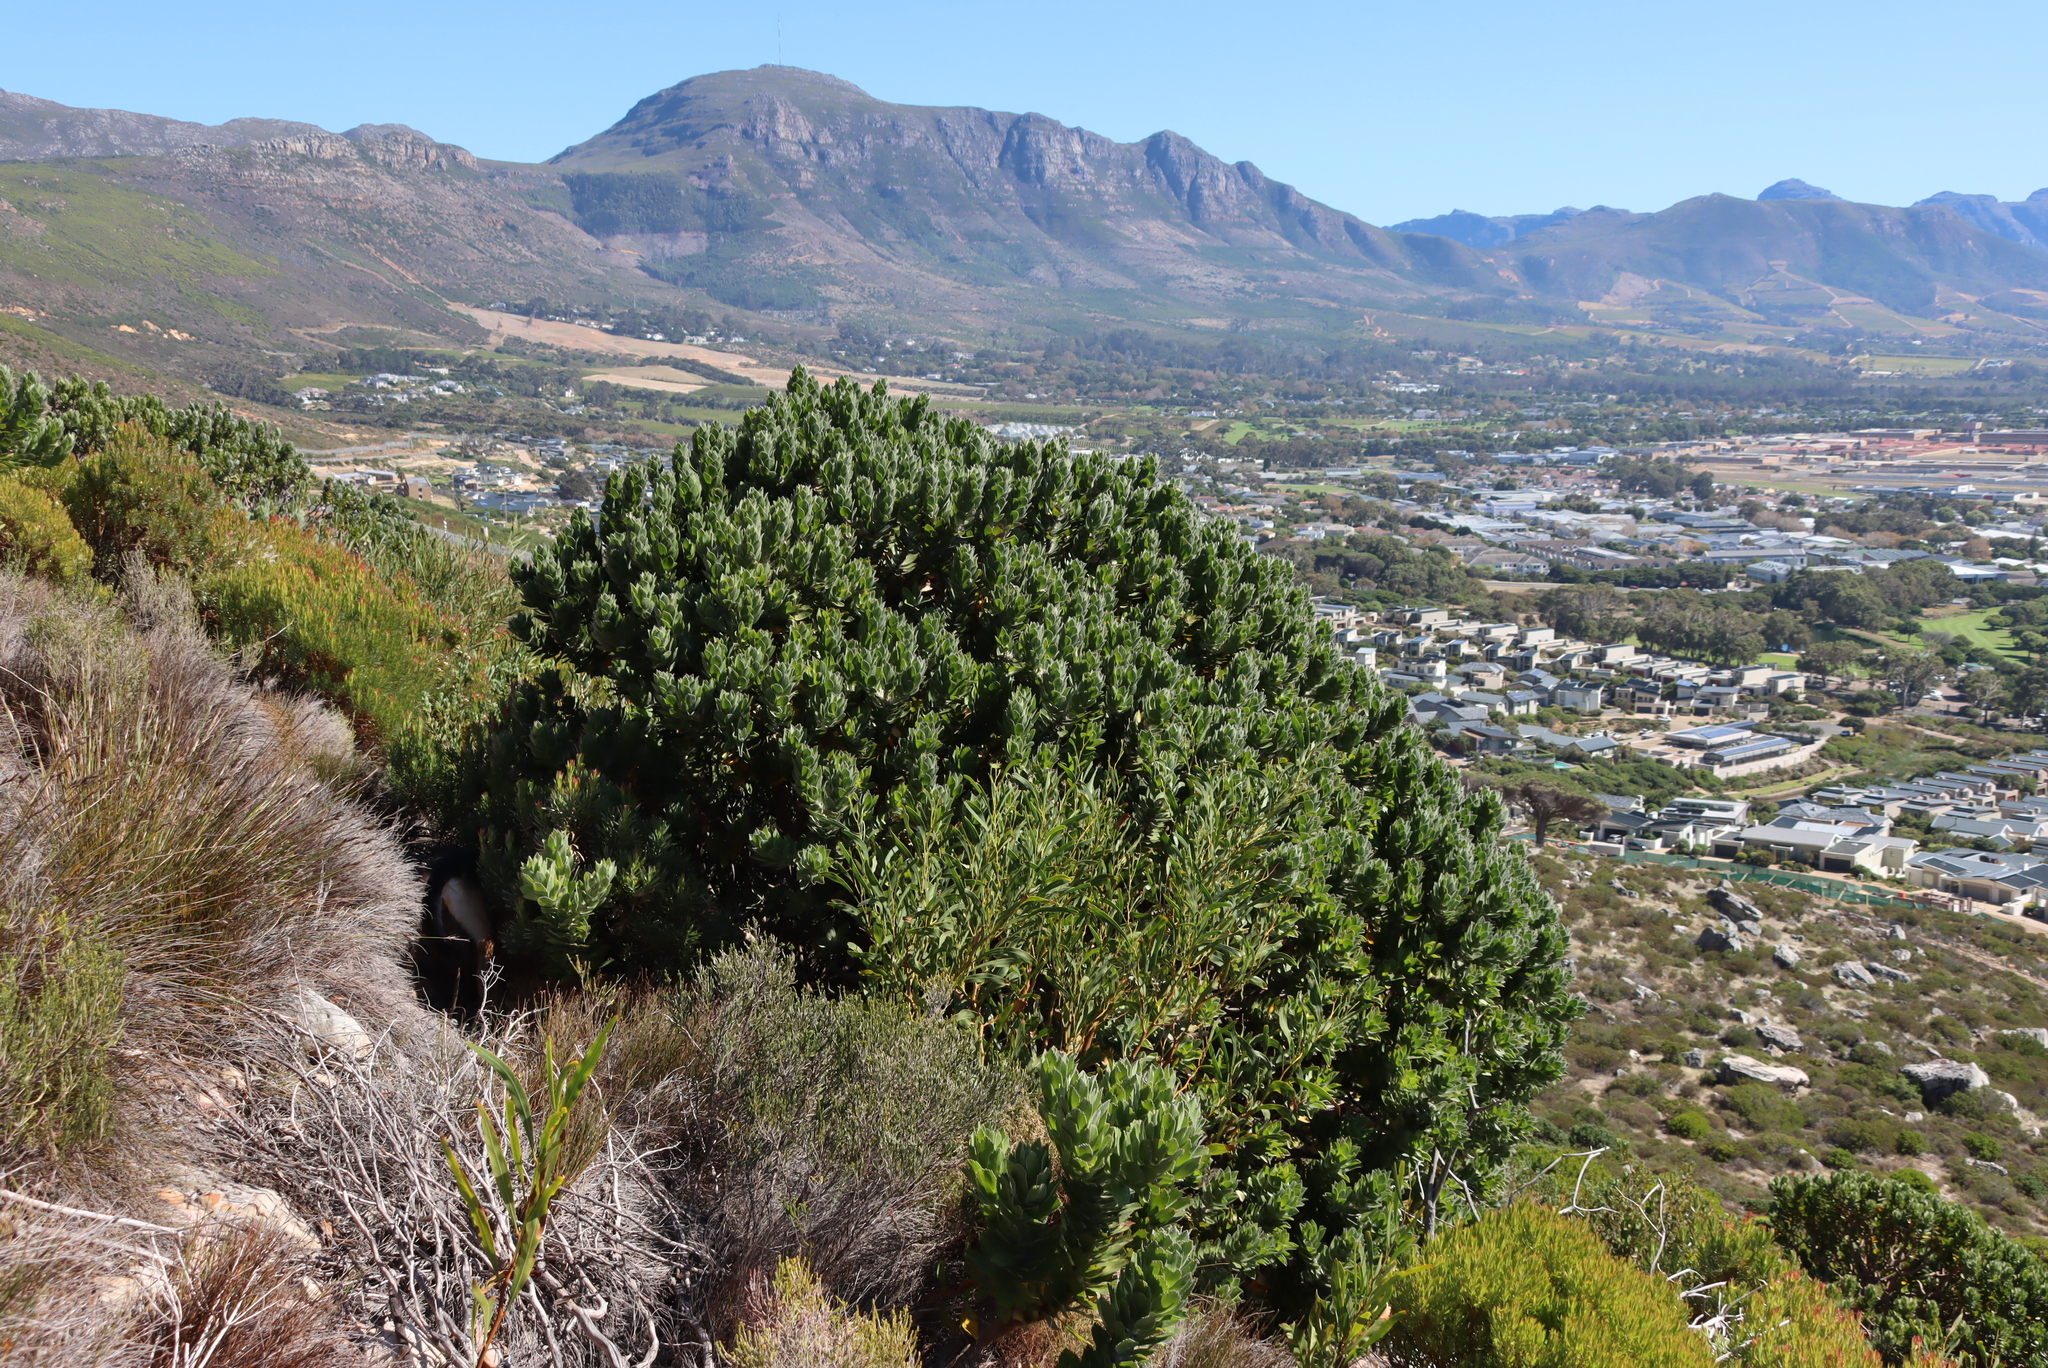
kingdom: Plantae
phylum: Tracheophyta
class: Magnoliopsida
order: Proteales
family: Proteaceae
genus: Leucospermum
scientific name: Leucospermum conocarpodendron
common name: Tree pincushion
